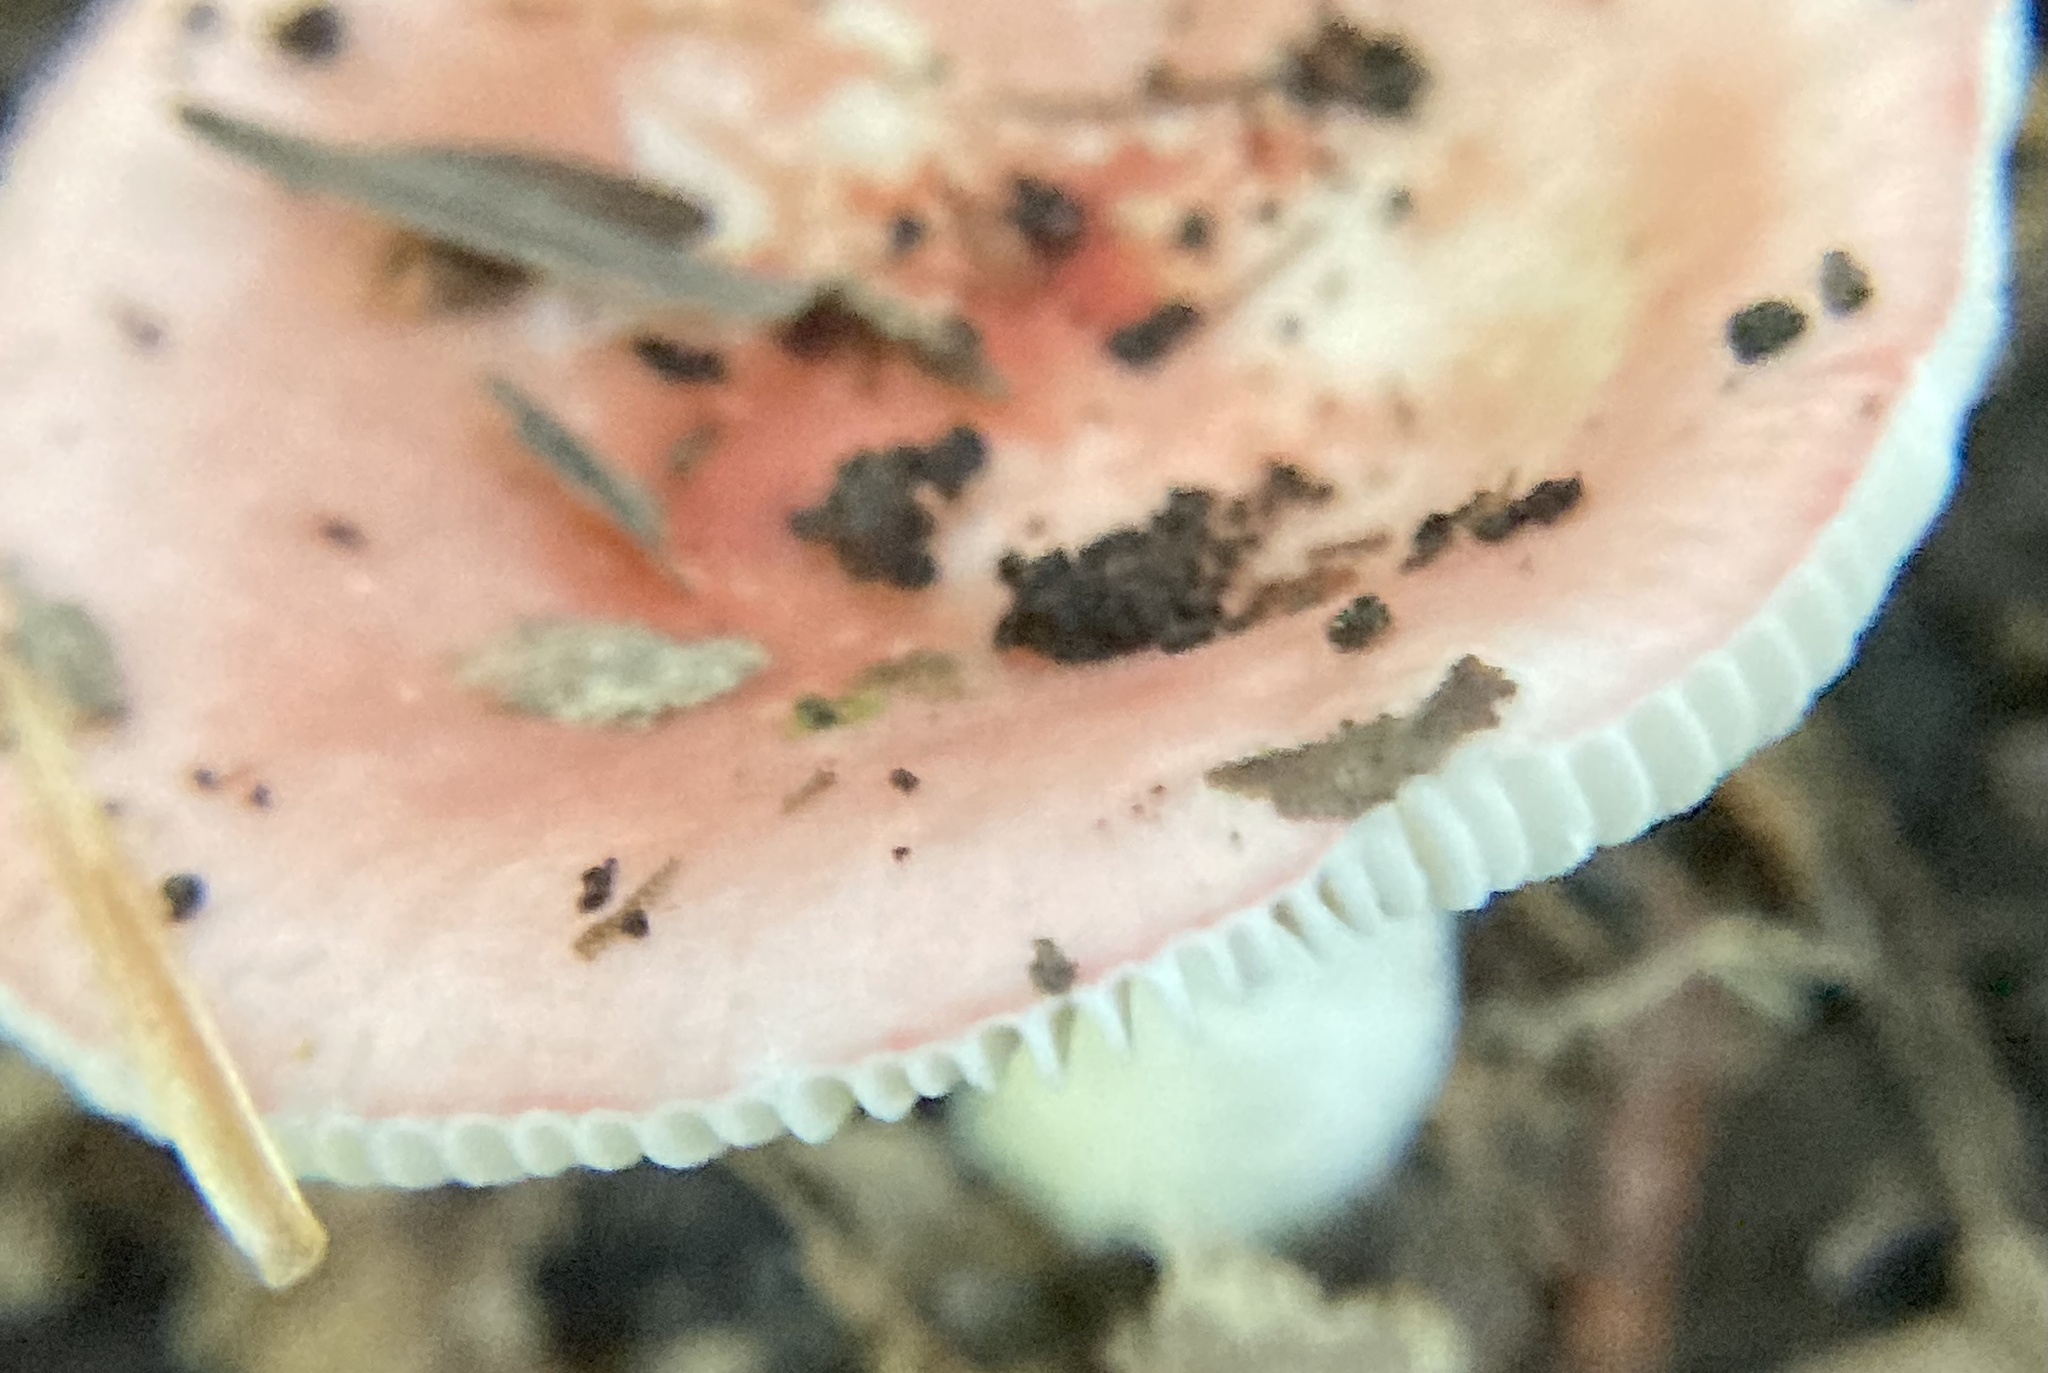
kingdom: Fungi
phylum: Basidiomycota
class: Agaricomycetes
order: Russulales
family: Russulaceae
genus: Russula
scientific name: Russula
